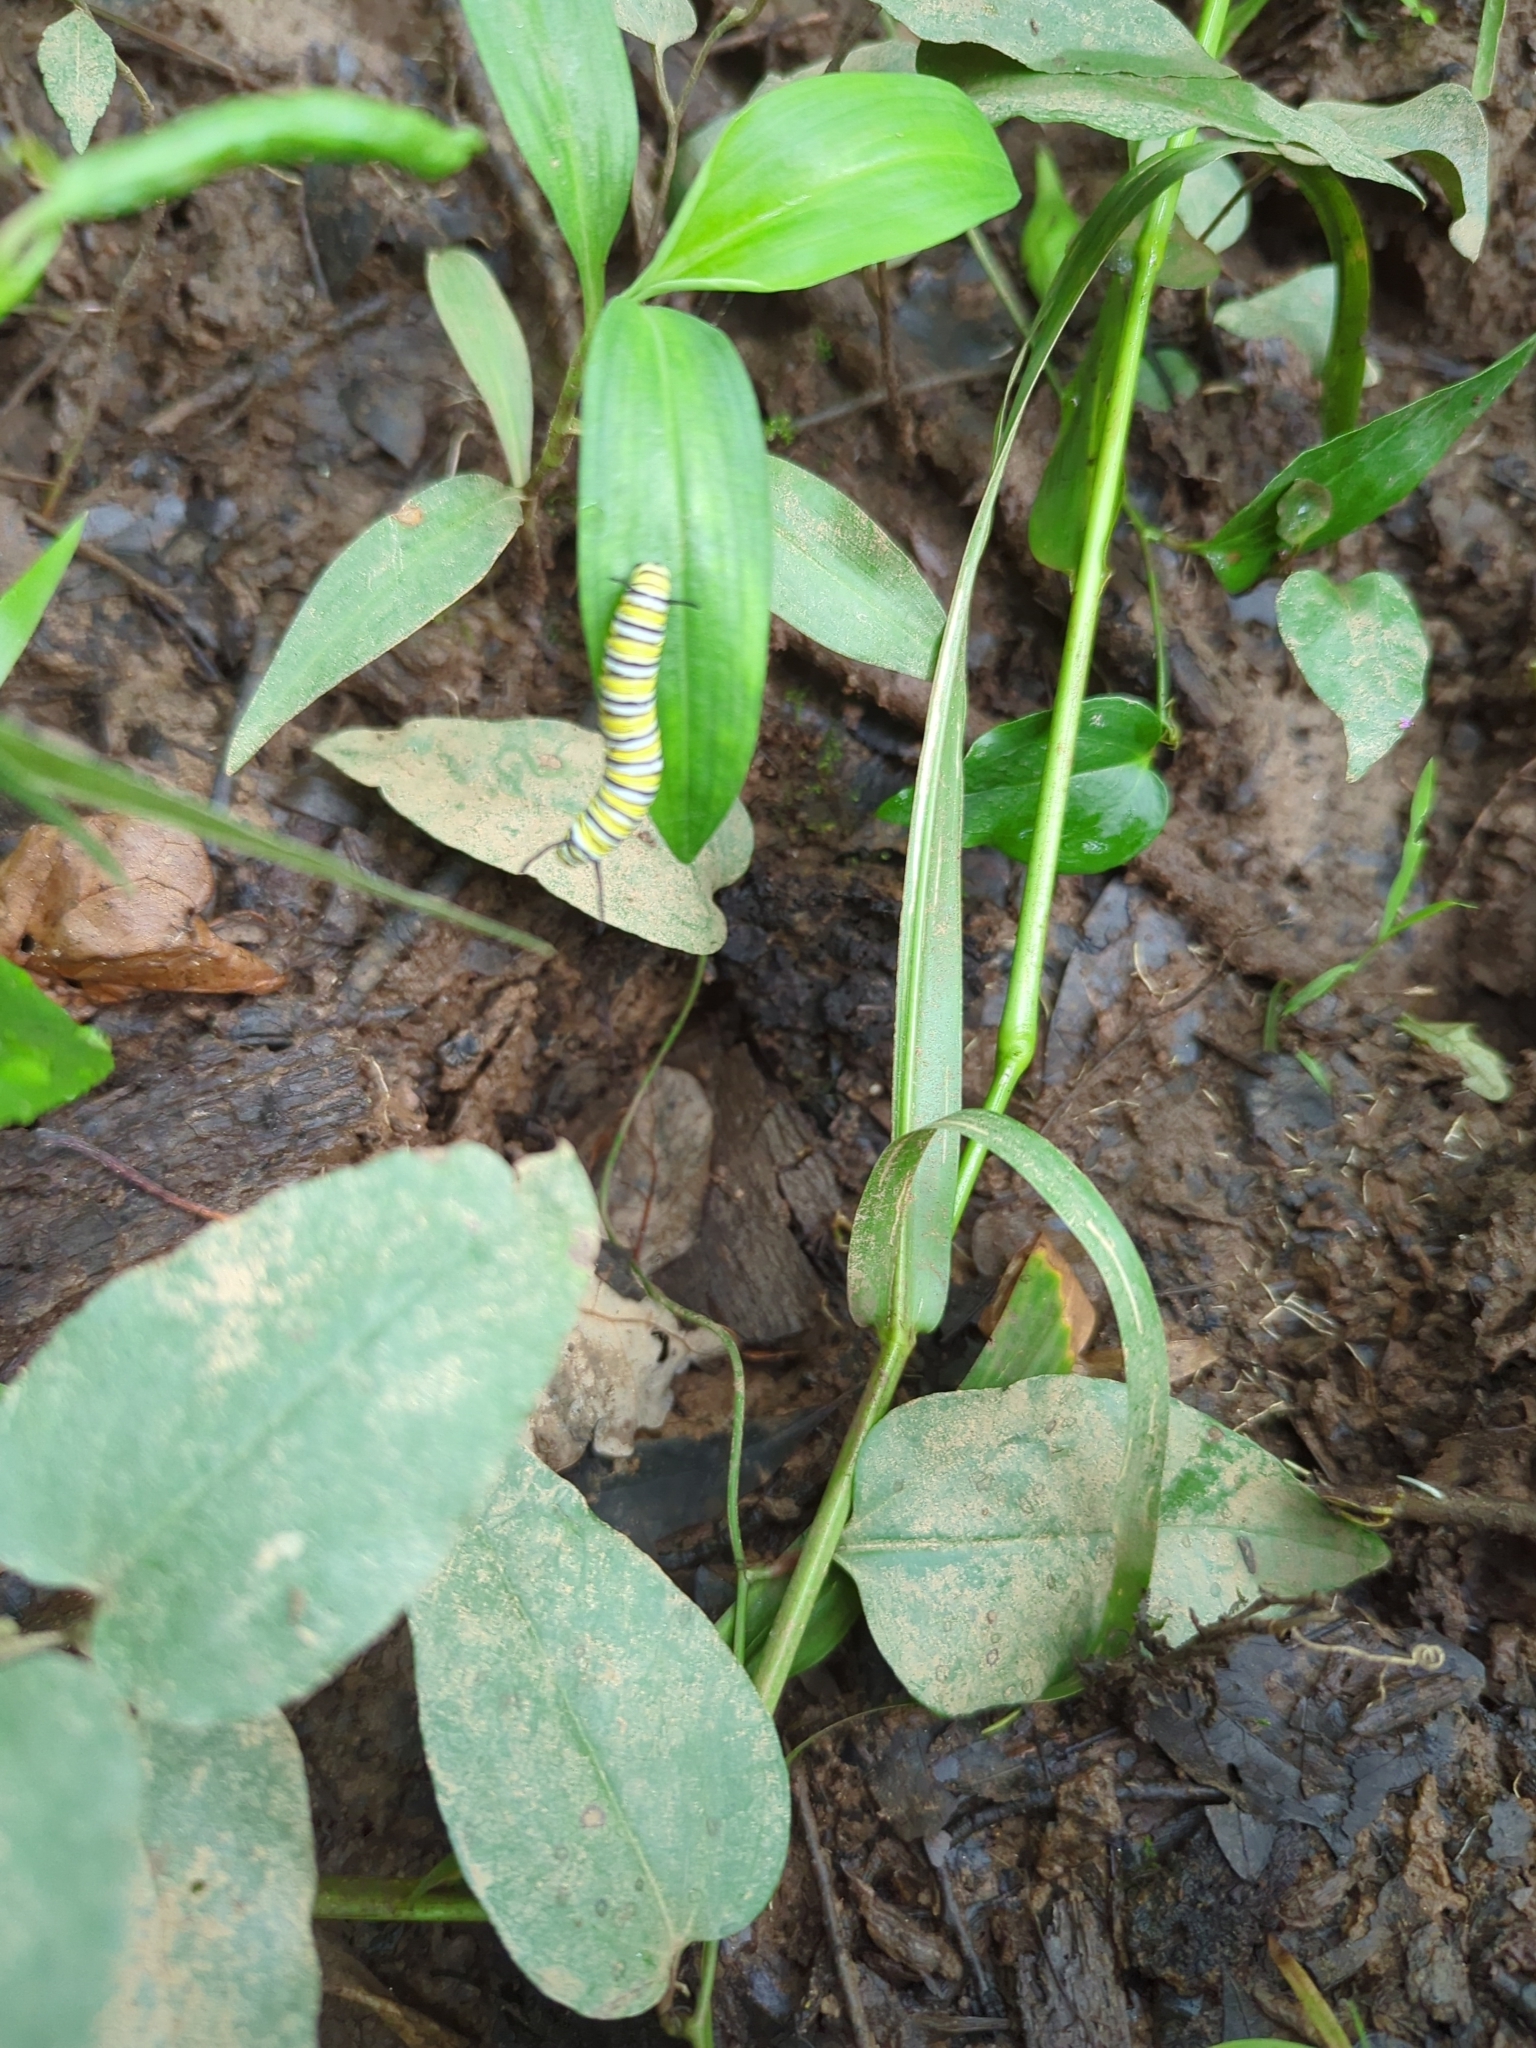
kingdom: Animalia
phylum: Arthropoda
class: Insecta
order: Lepidoptera
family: Nymphalidae
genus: Danaus
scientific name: Danaus plexippus
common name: Monarch
